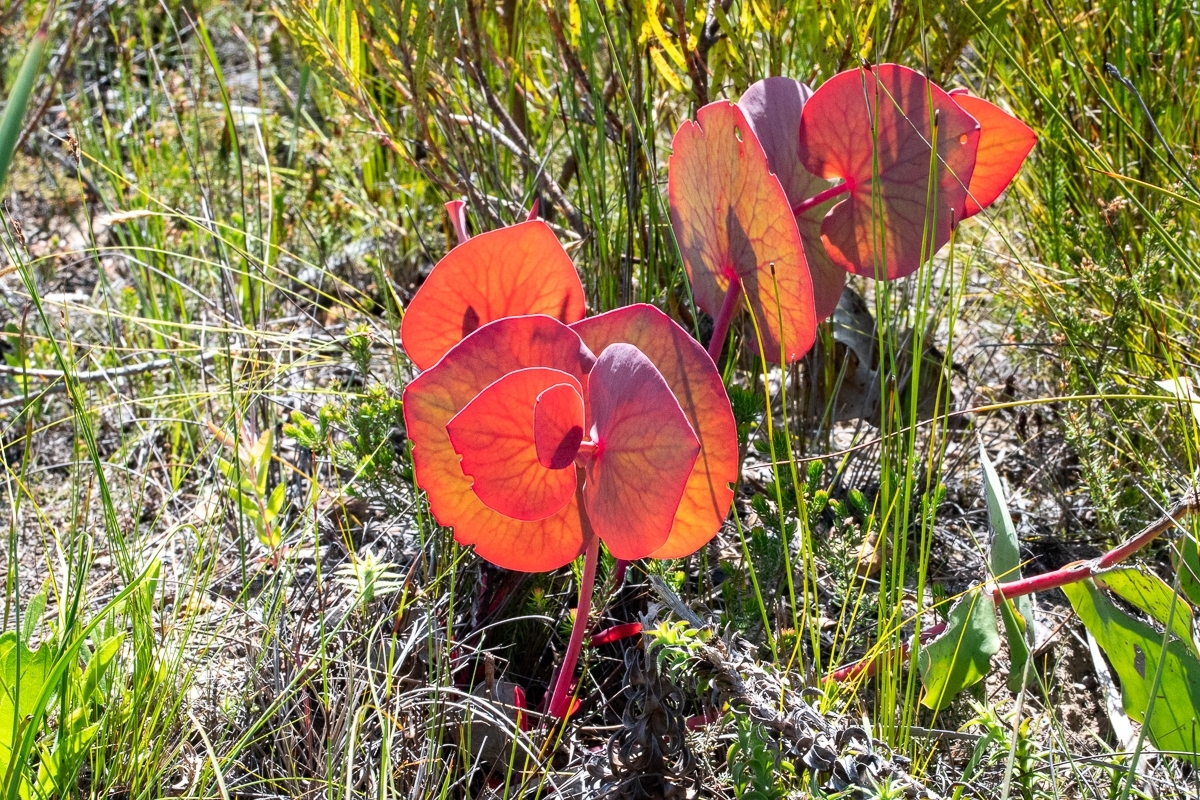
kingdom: Plantae
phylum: Tracheophyta
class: Magnoliopsida
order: Proteales
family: Proteaceae
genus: Protea
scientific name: Protea cordata
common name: Heart-leaf sugarbush
